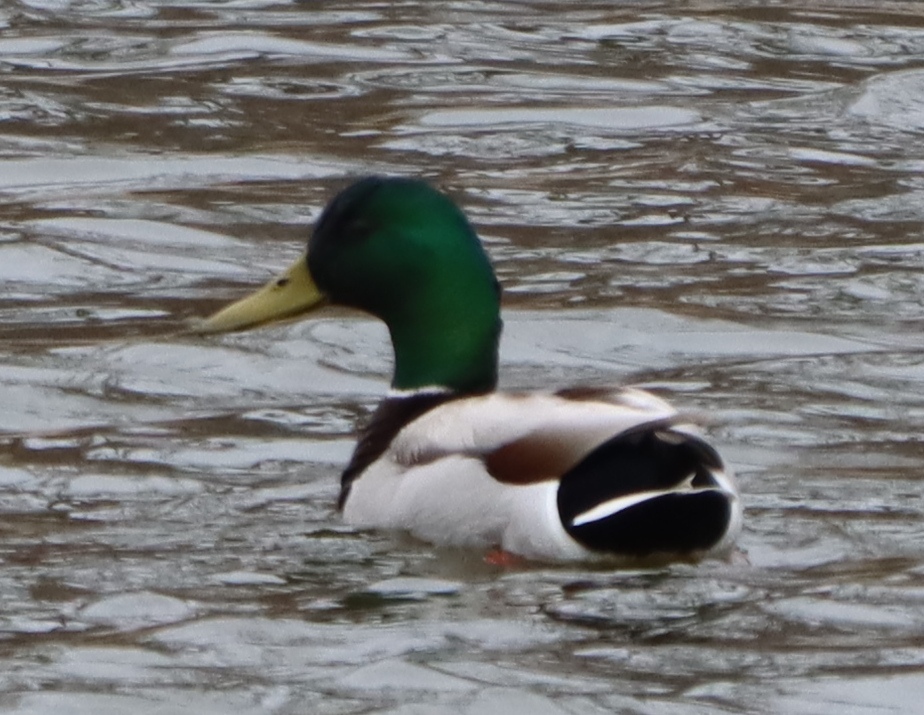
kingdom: Animalia
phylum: Chordata
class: Aves
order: Anseriformes
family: Anatidae
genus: Anas
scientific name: Anas platyrhynchos
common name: Mallard
